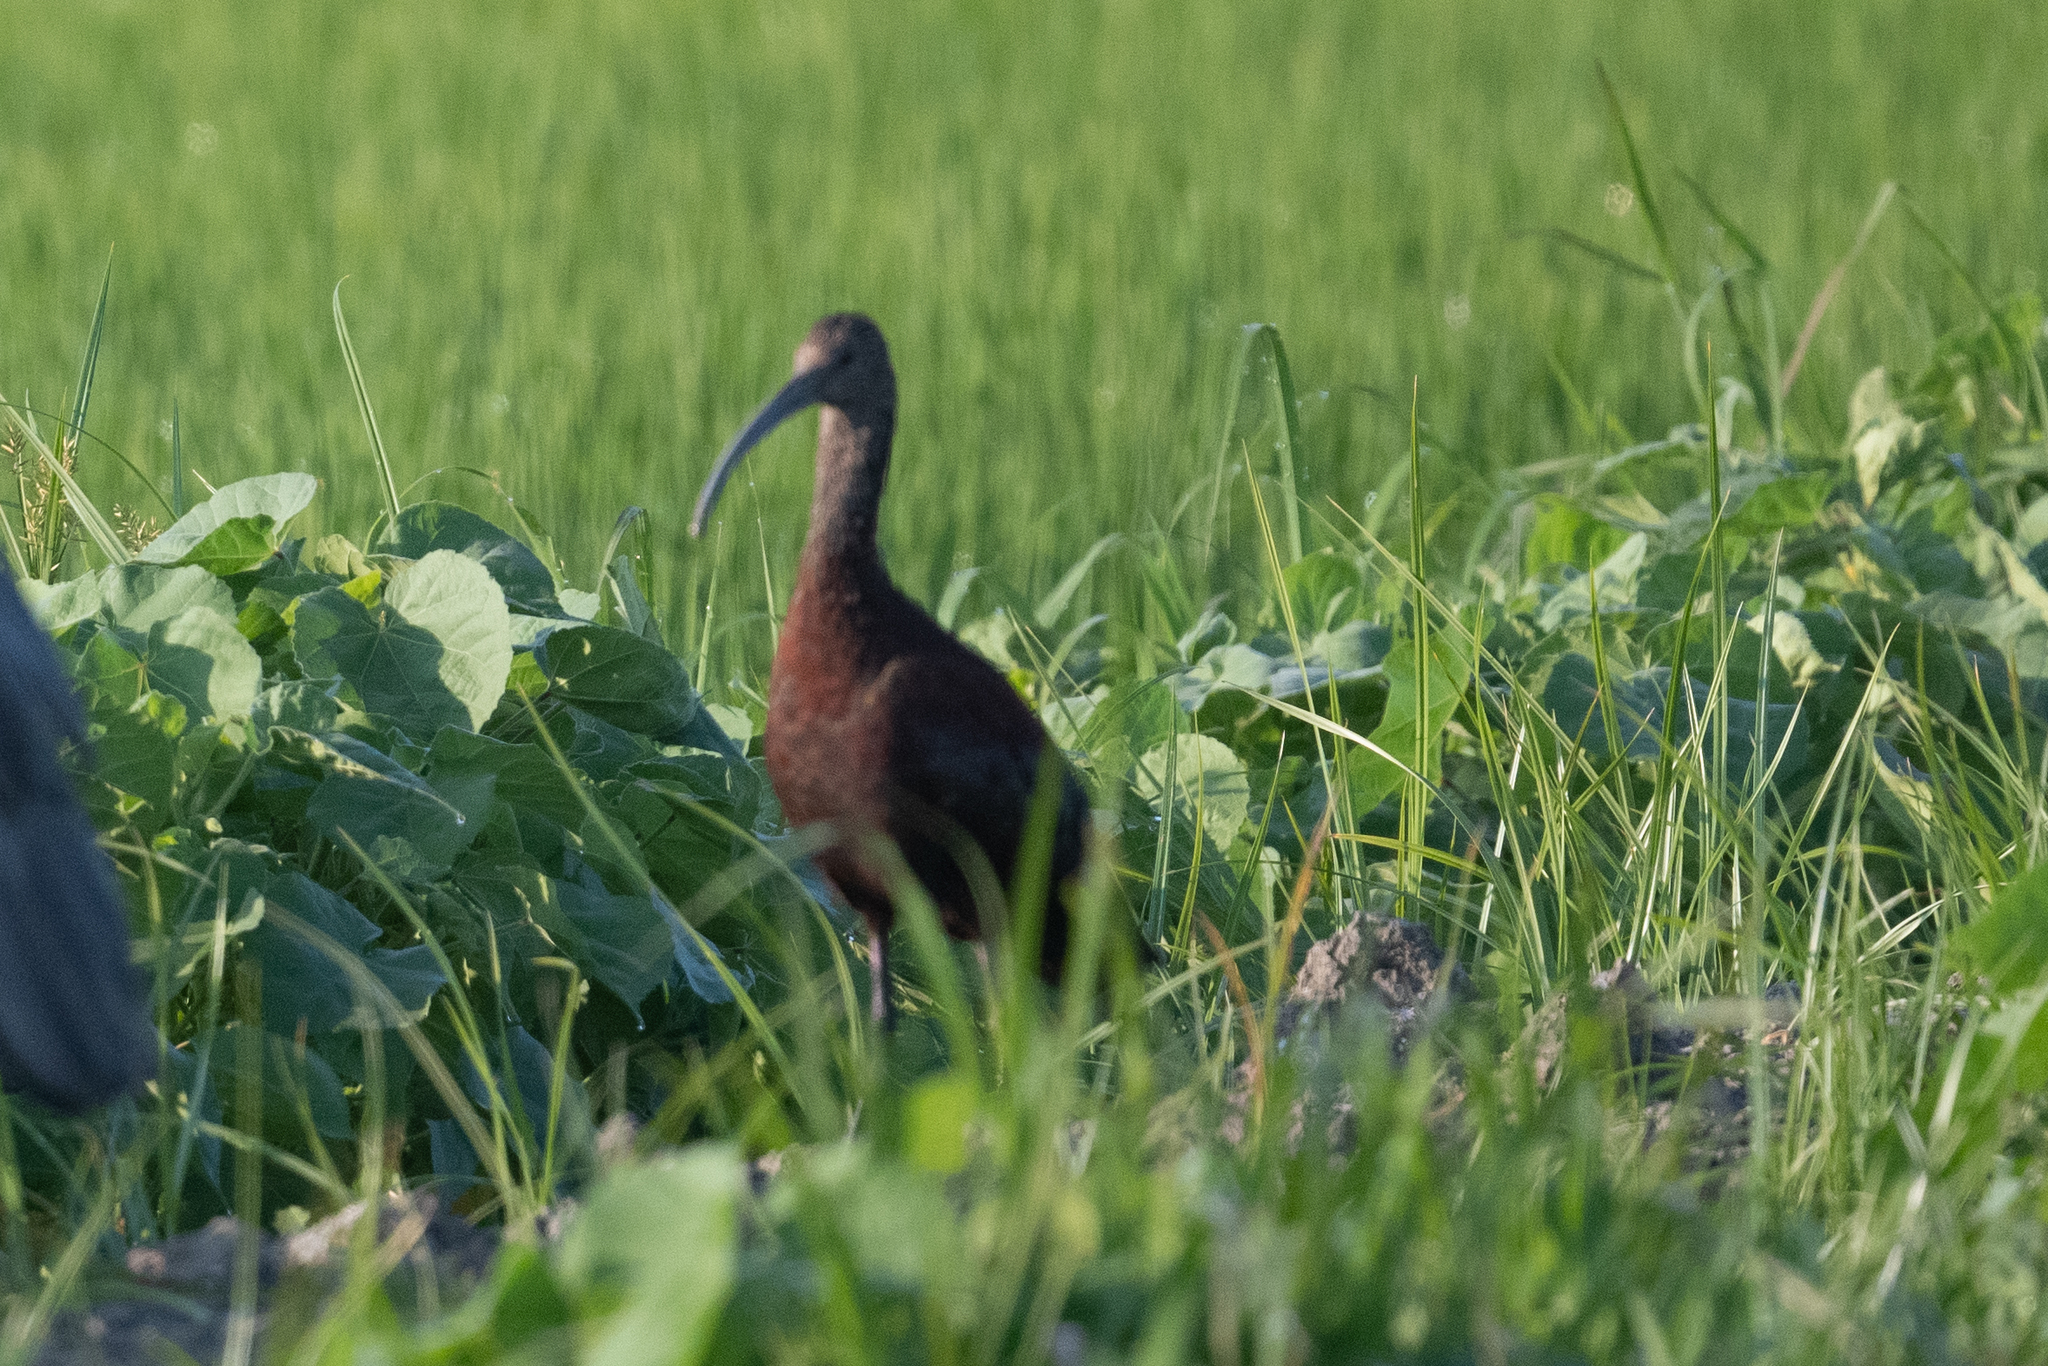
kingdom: Animalia
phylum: Chordata
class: Aves
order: Pelecaniformes
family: Threskiornithidae
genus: Plegadis
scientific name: Plegadis chihi
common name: White-faced ibis
